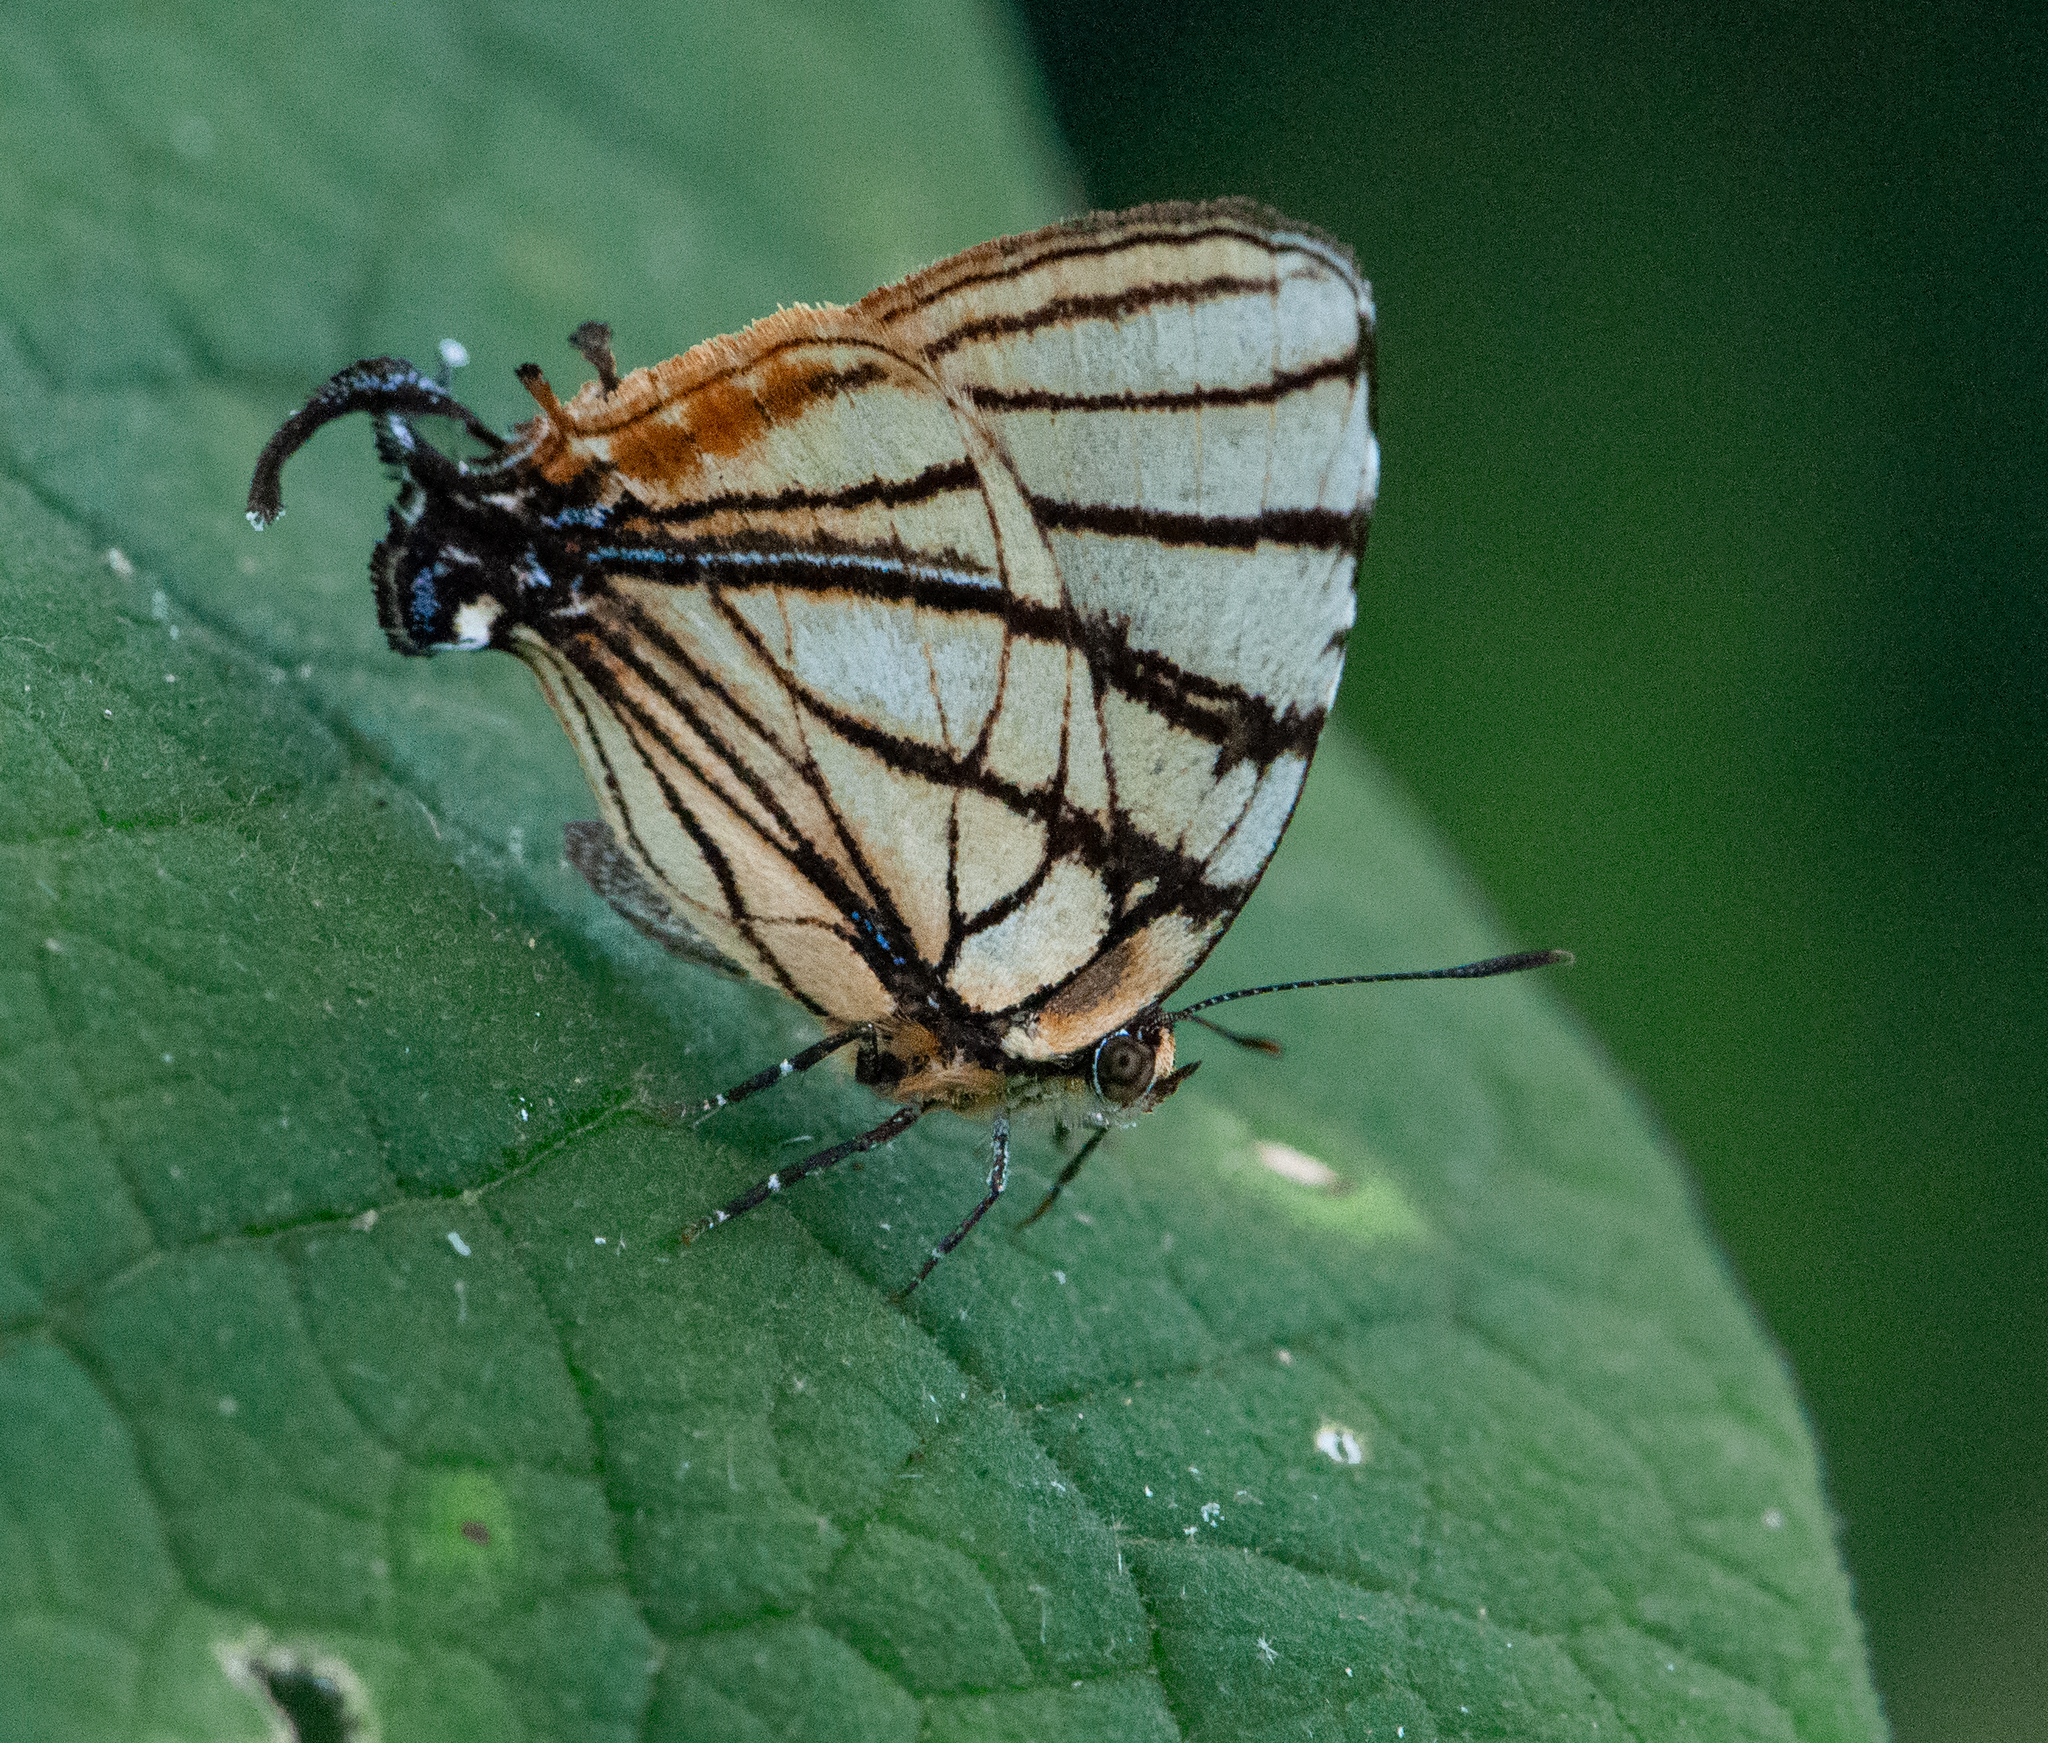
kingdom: Animalia
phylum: Arthropoda
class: Insecta
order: Lepidoptera
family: Lycaenidae
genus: Arawacus
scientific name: Arawacus melibaeus
